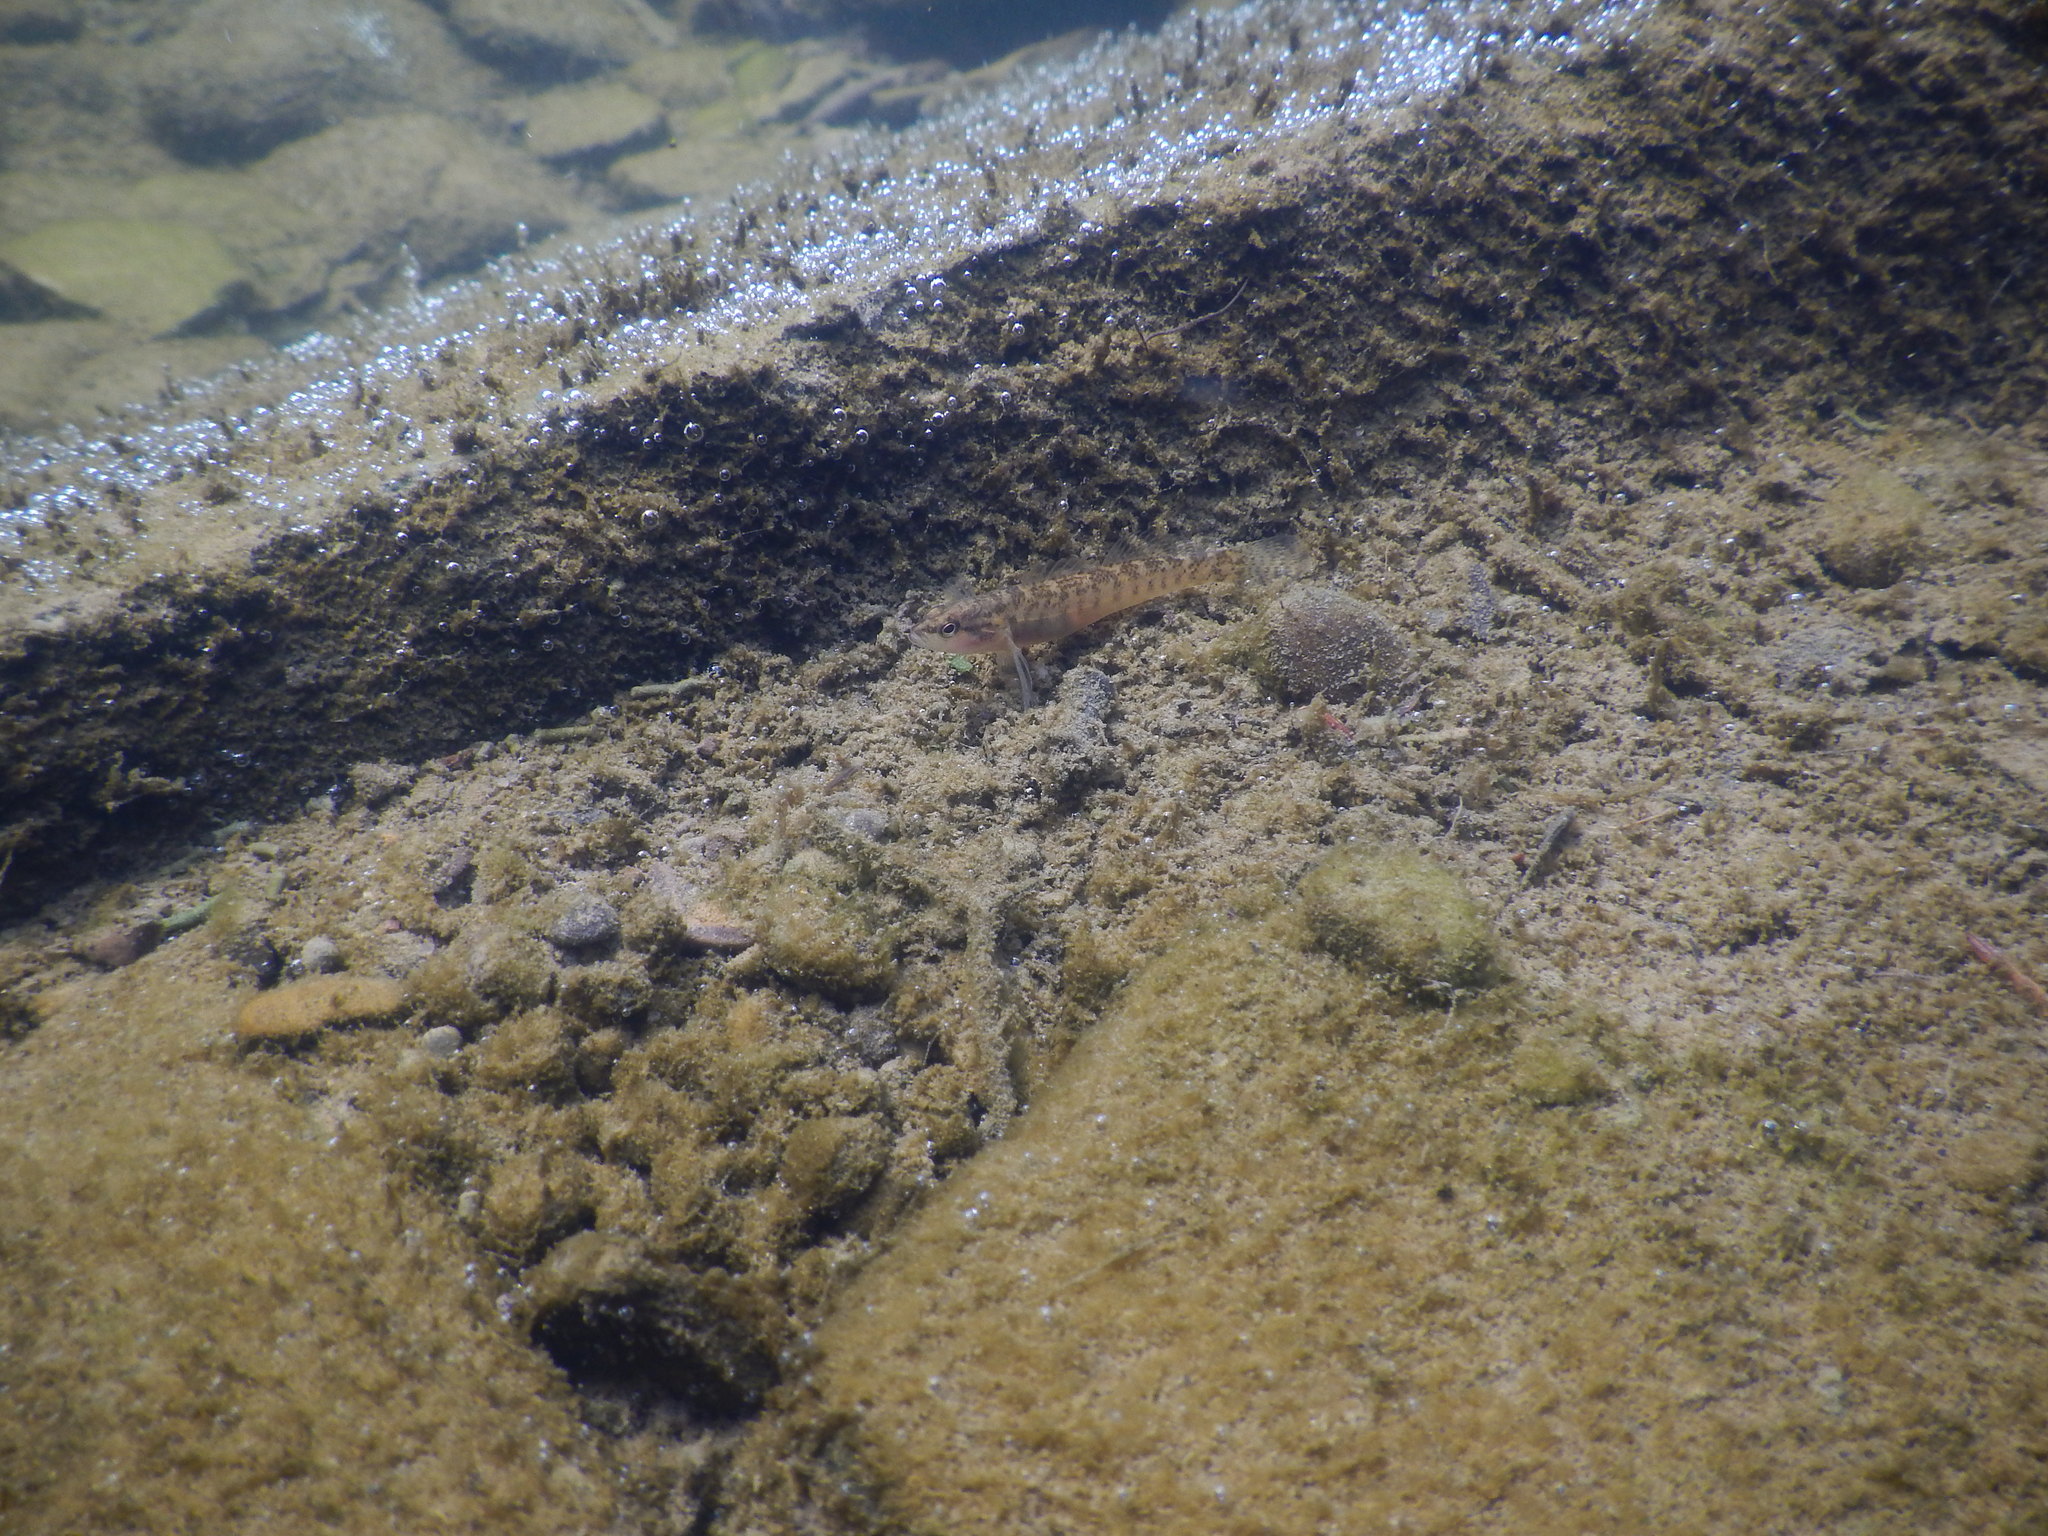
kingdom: Animalia
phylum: Chordata
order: Perciformes
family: Percidae
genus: Etheostoma
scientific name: Etheostoma flabellare
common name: Fantail darter
